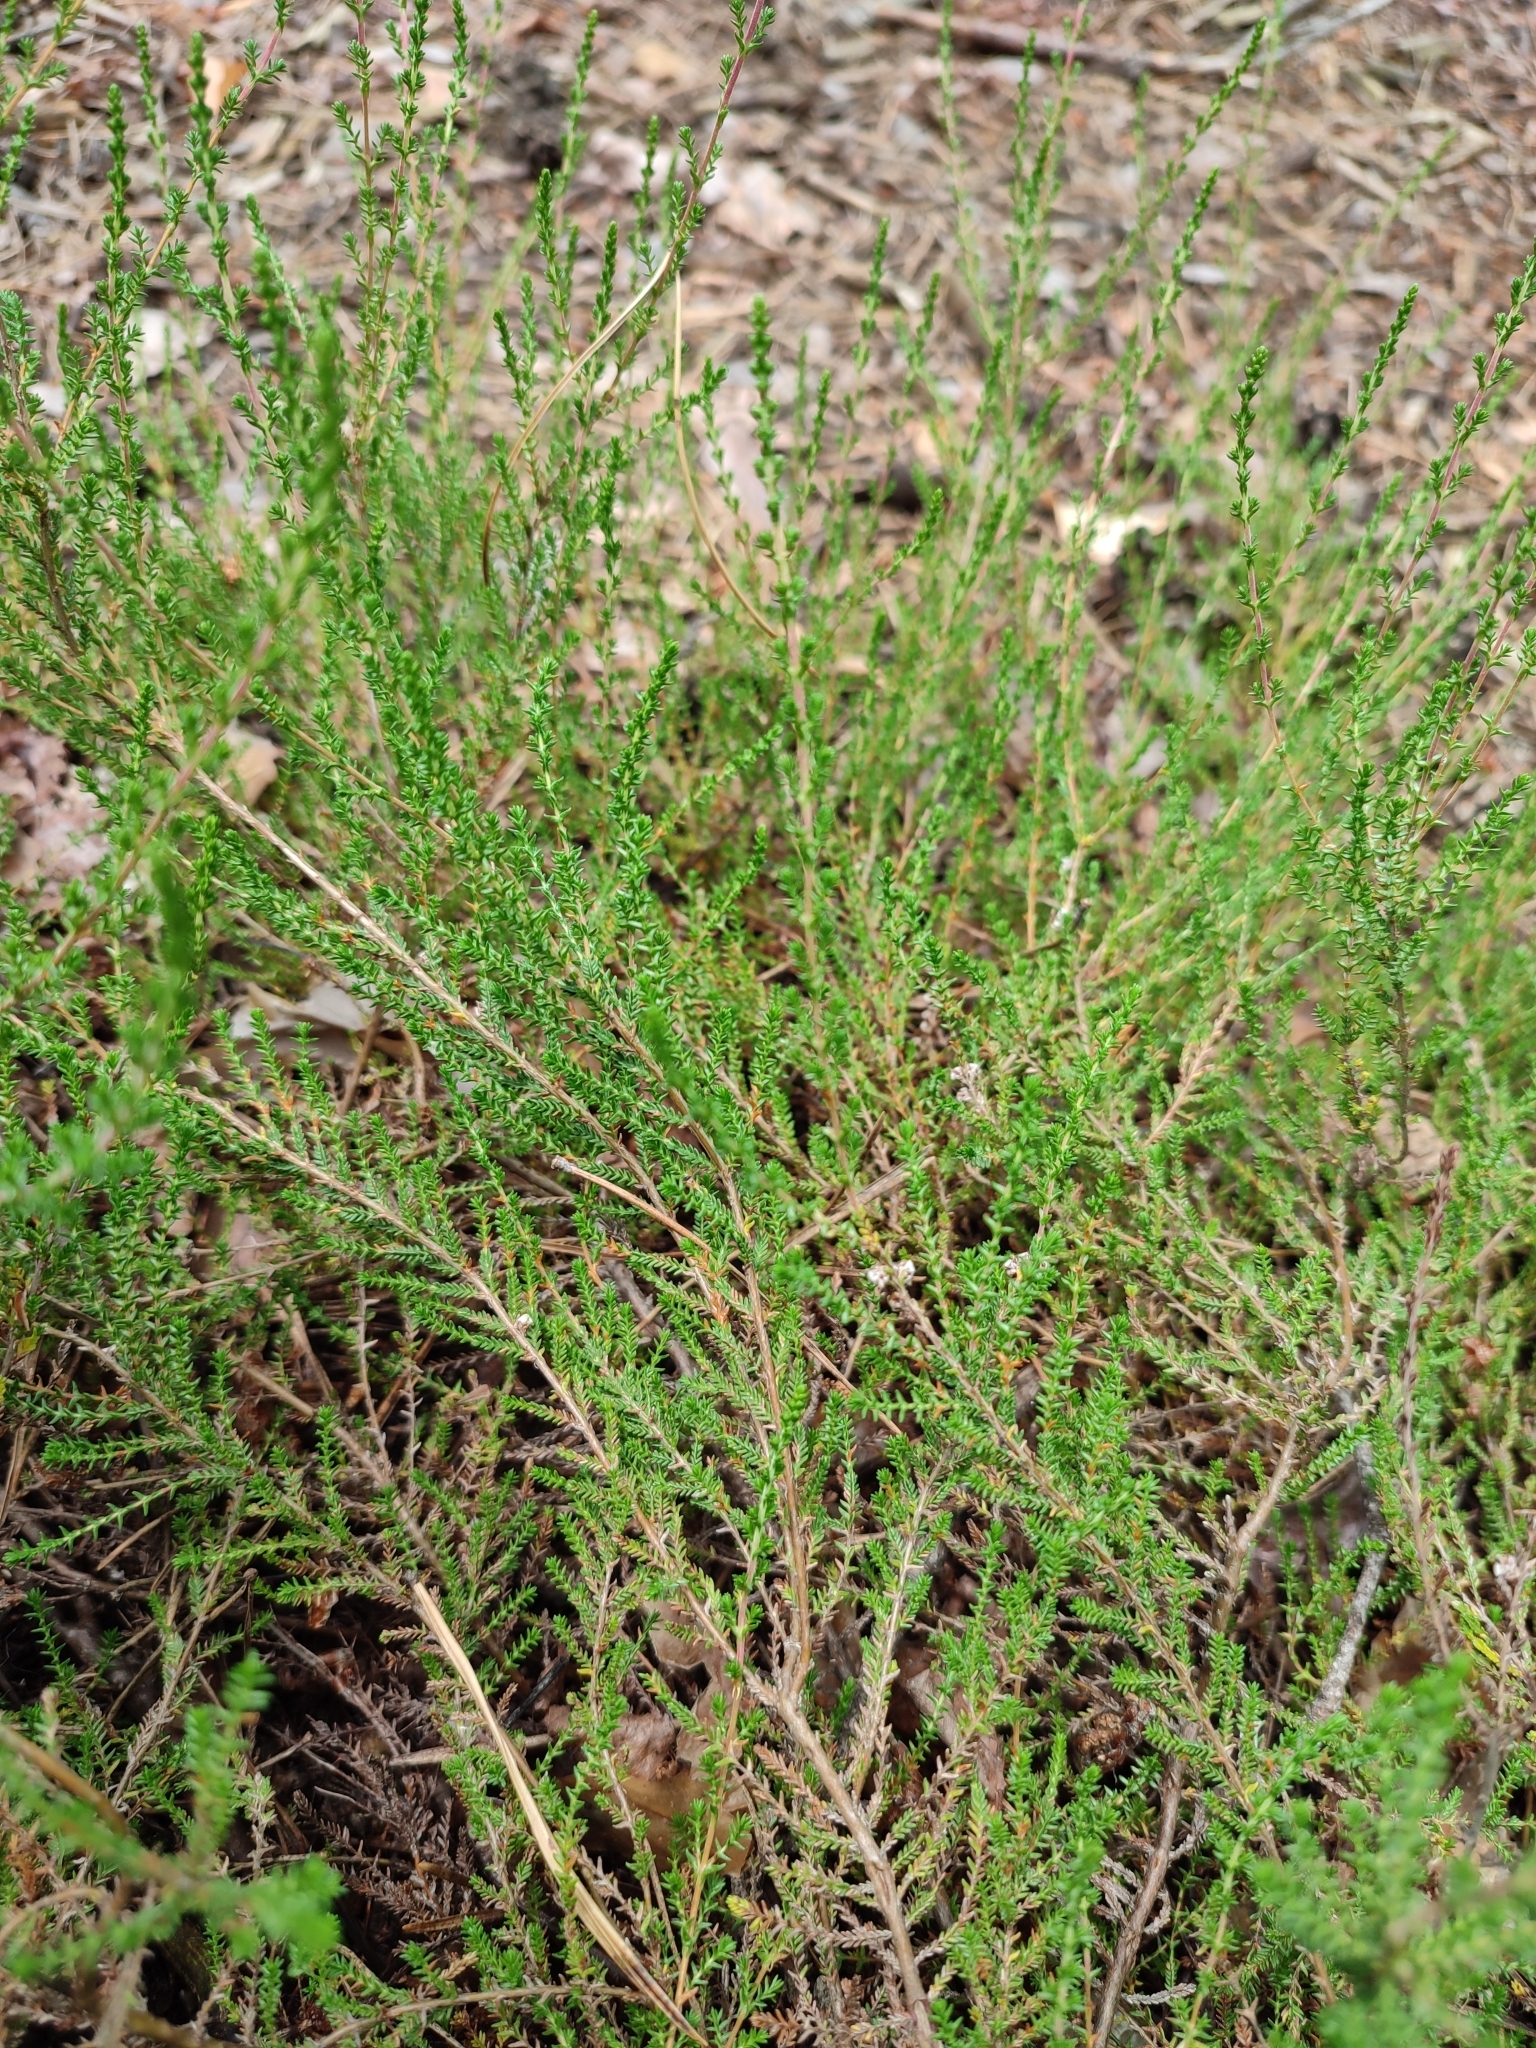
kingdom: Plantae
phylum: Tracheophyta
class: Magnoliopsida
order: Ericales
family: Ericaceae
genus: Calluna
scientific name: Calluna vulgaris
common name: Heather
